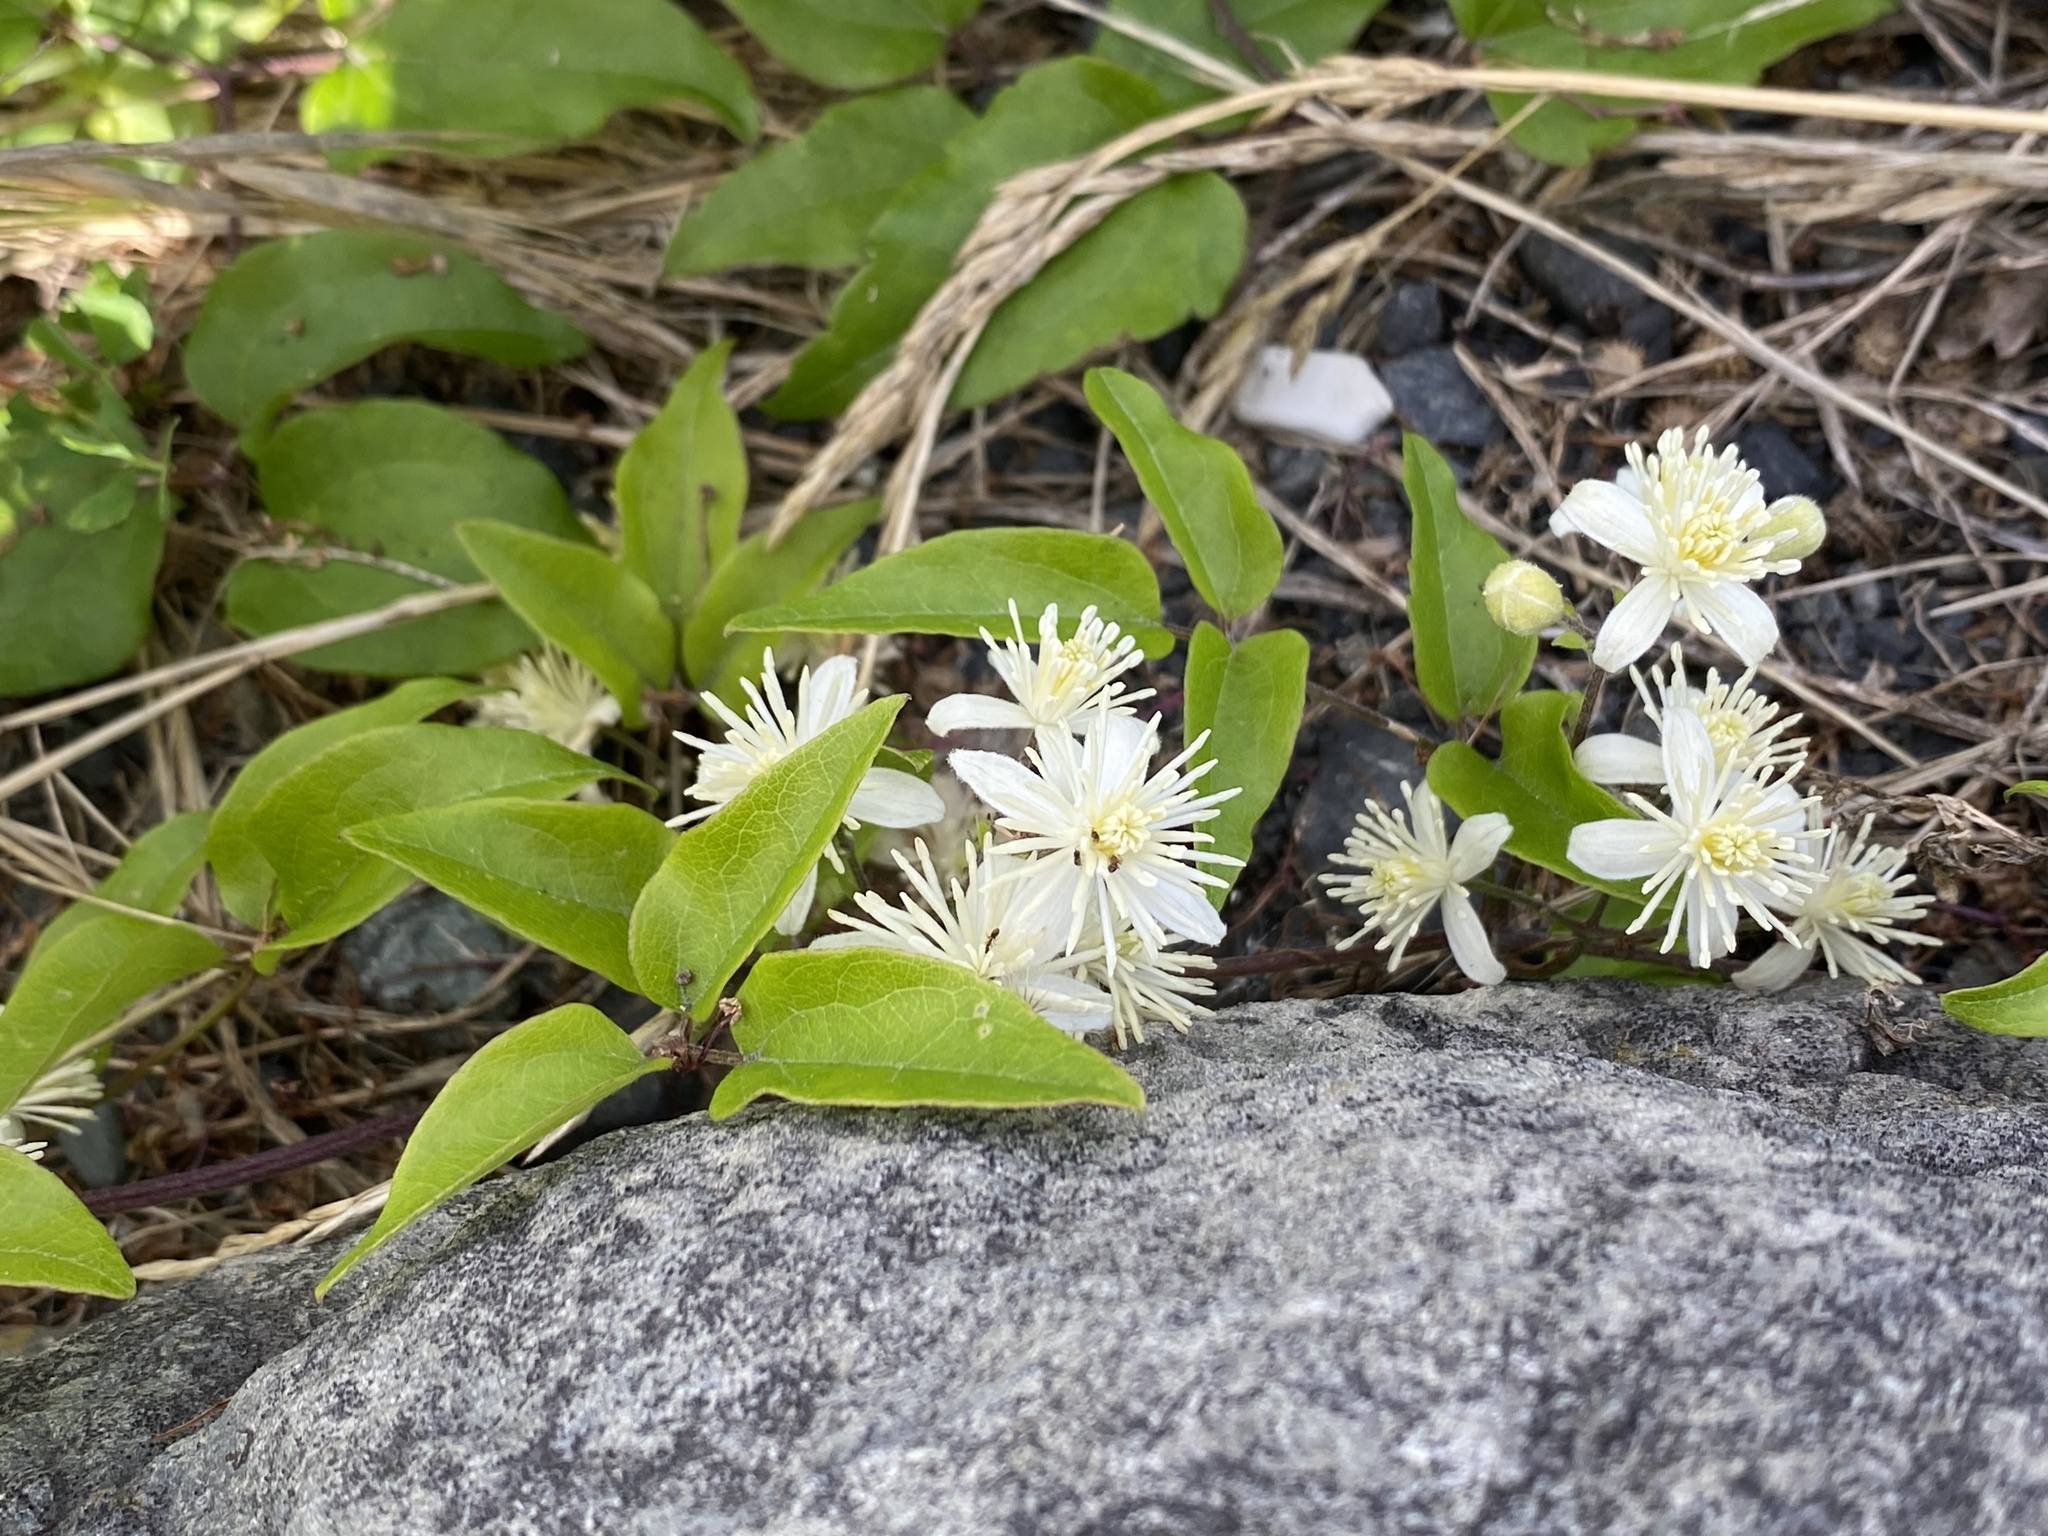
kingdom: Plantae
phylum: Tracheophyta
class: Magnoliopsida
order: Ranunculales
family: Ranunculaceae
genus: Clematis
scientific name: Clematis vitalba
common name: Evergreen clematis
